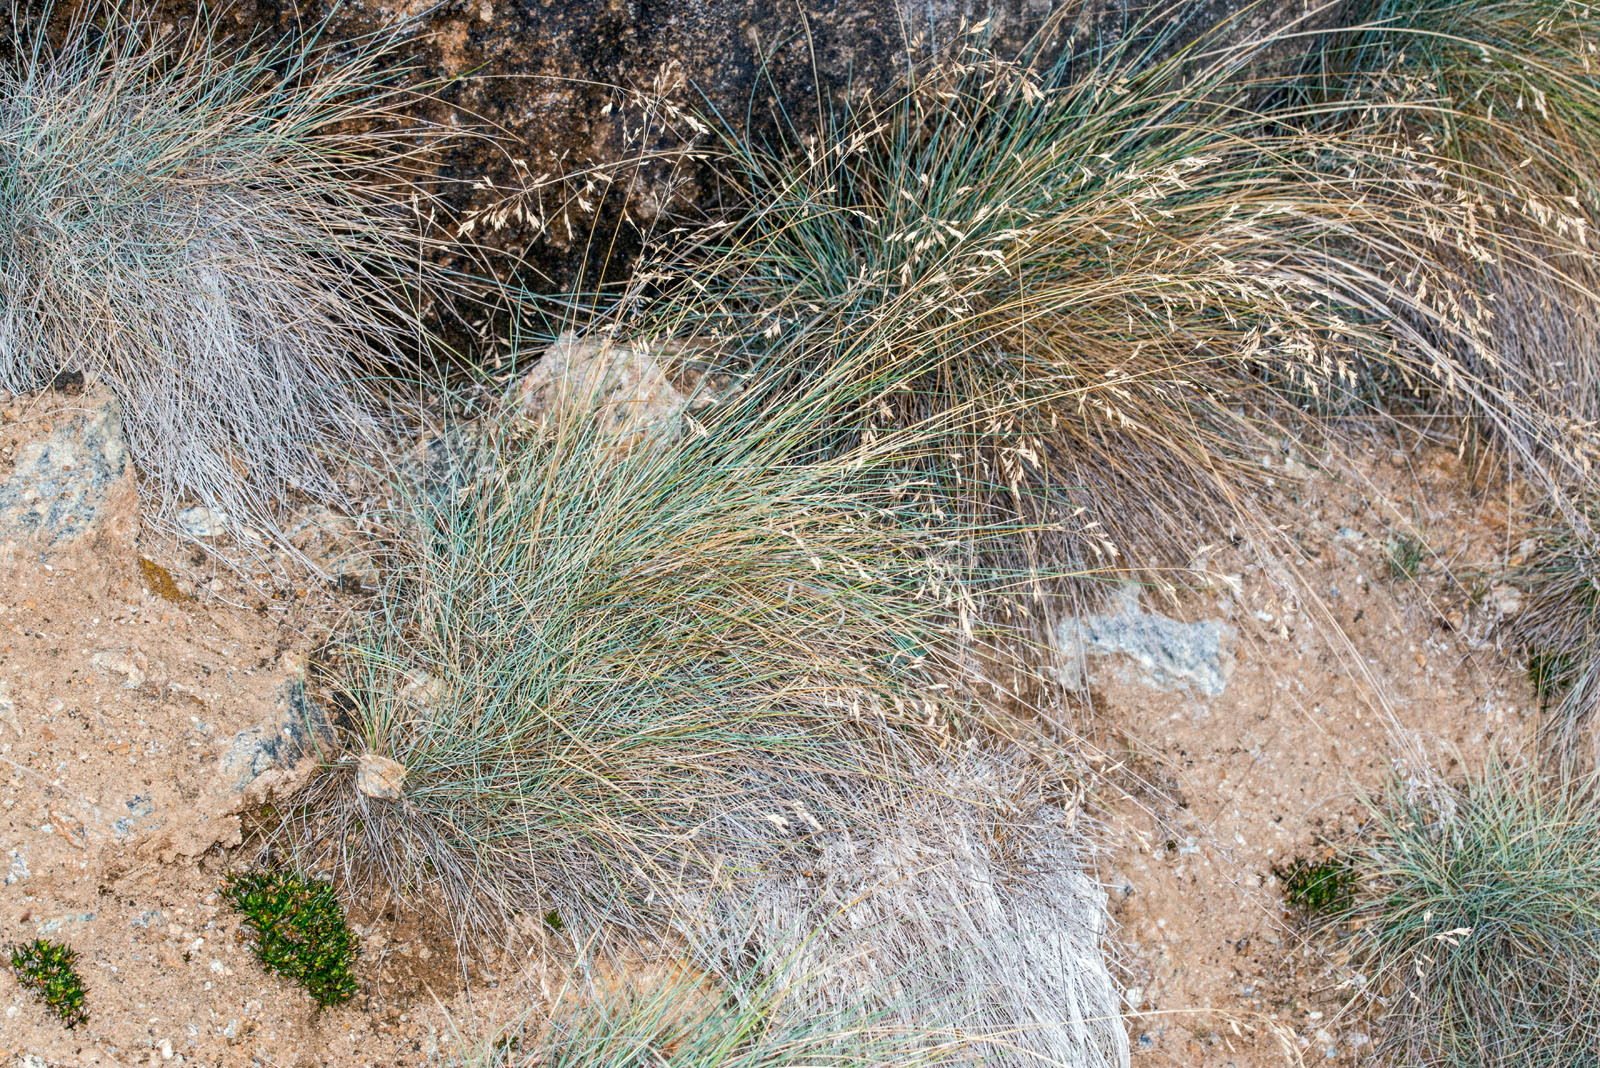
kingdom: Plantae
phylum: Tracheophyta
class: Liliopsida
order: Poales
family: Poaceae
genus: Poa
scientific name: Poa colensoi
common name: Blue tussock
